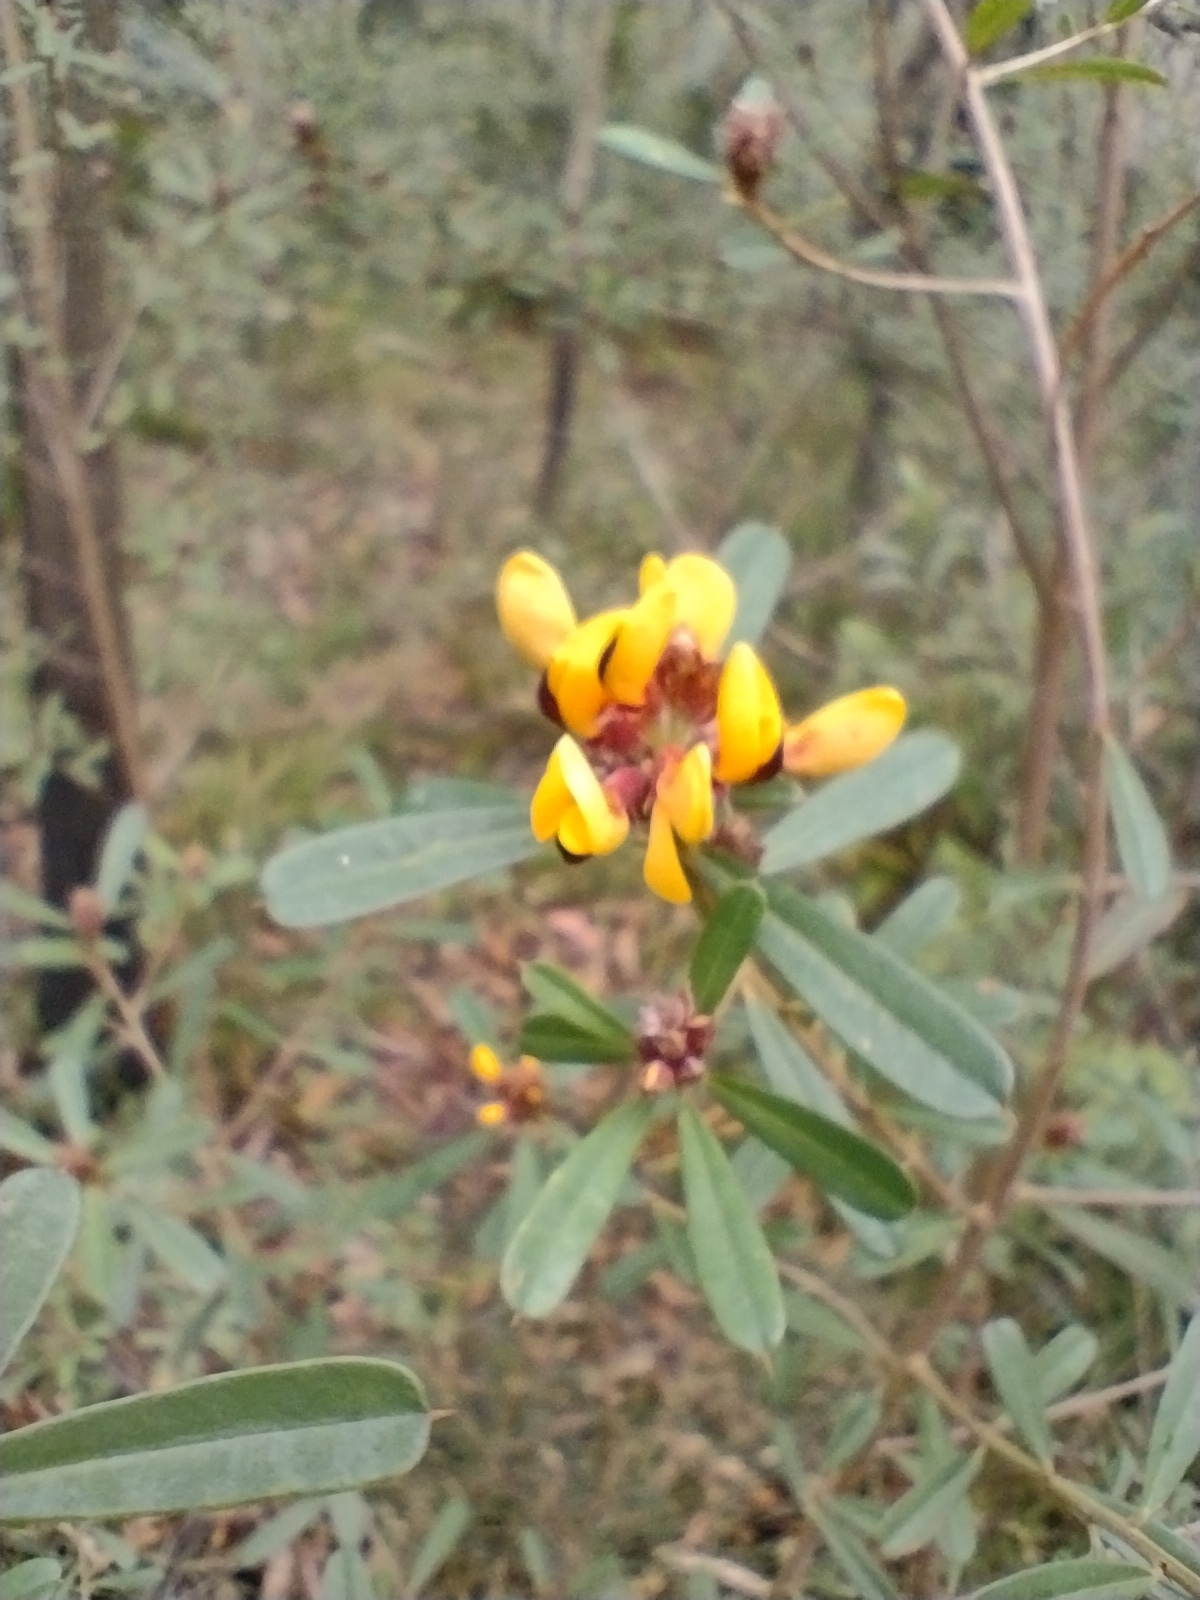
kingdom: Plantae
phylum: Tracheophyta
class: Magnoliopsida
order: Fabales
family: Fabaceae
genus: Pultenaea
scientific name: Pultenaea daphnoides
